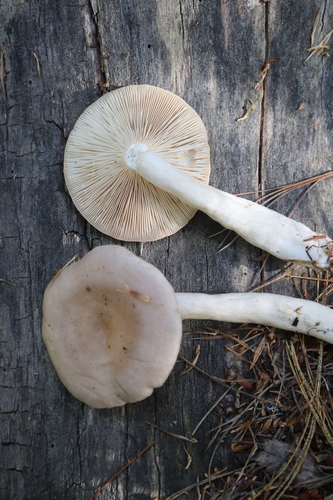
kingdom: Fungi
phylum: Basidiomycota
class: Agaricomycetes
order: Russulales
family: Russulaceae
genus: Lactarius
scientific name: Lactarius vietus
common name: Grey milk-cap
